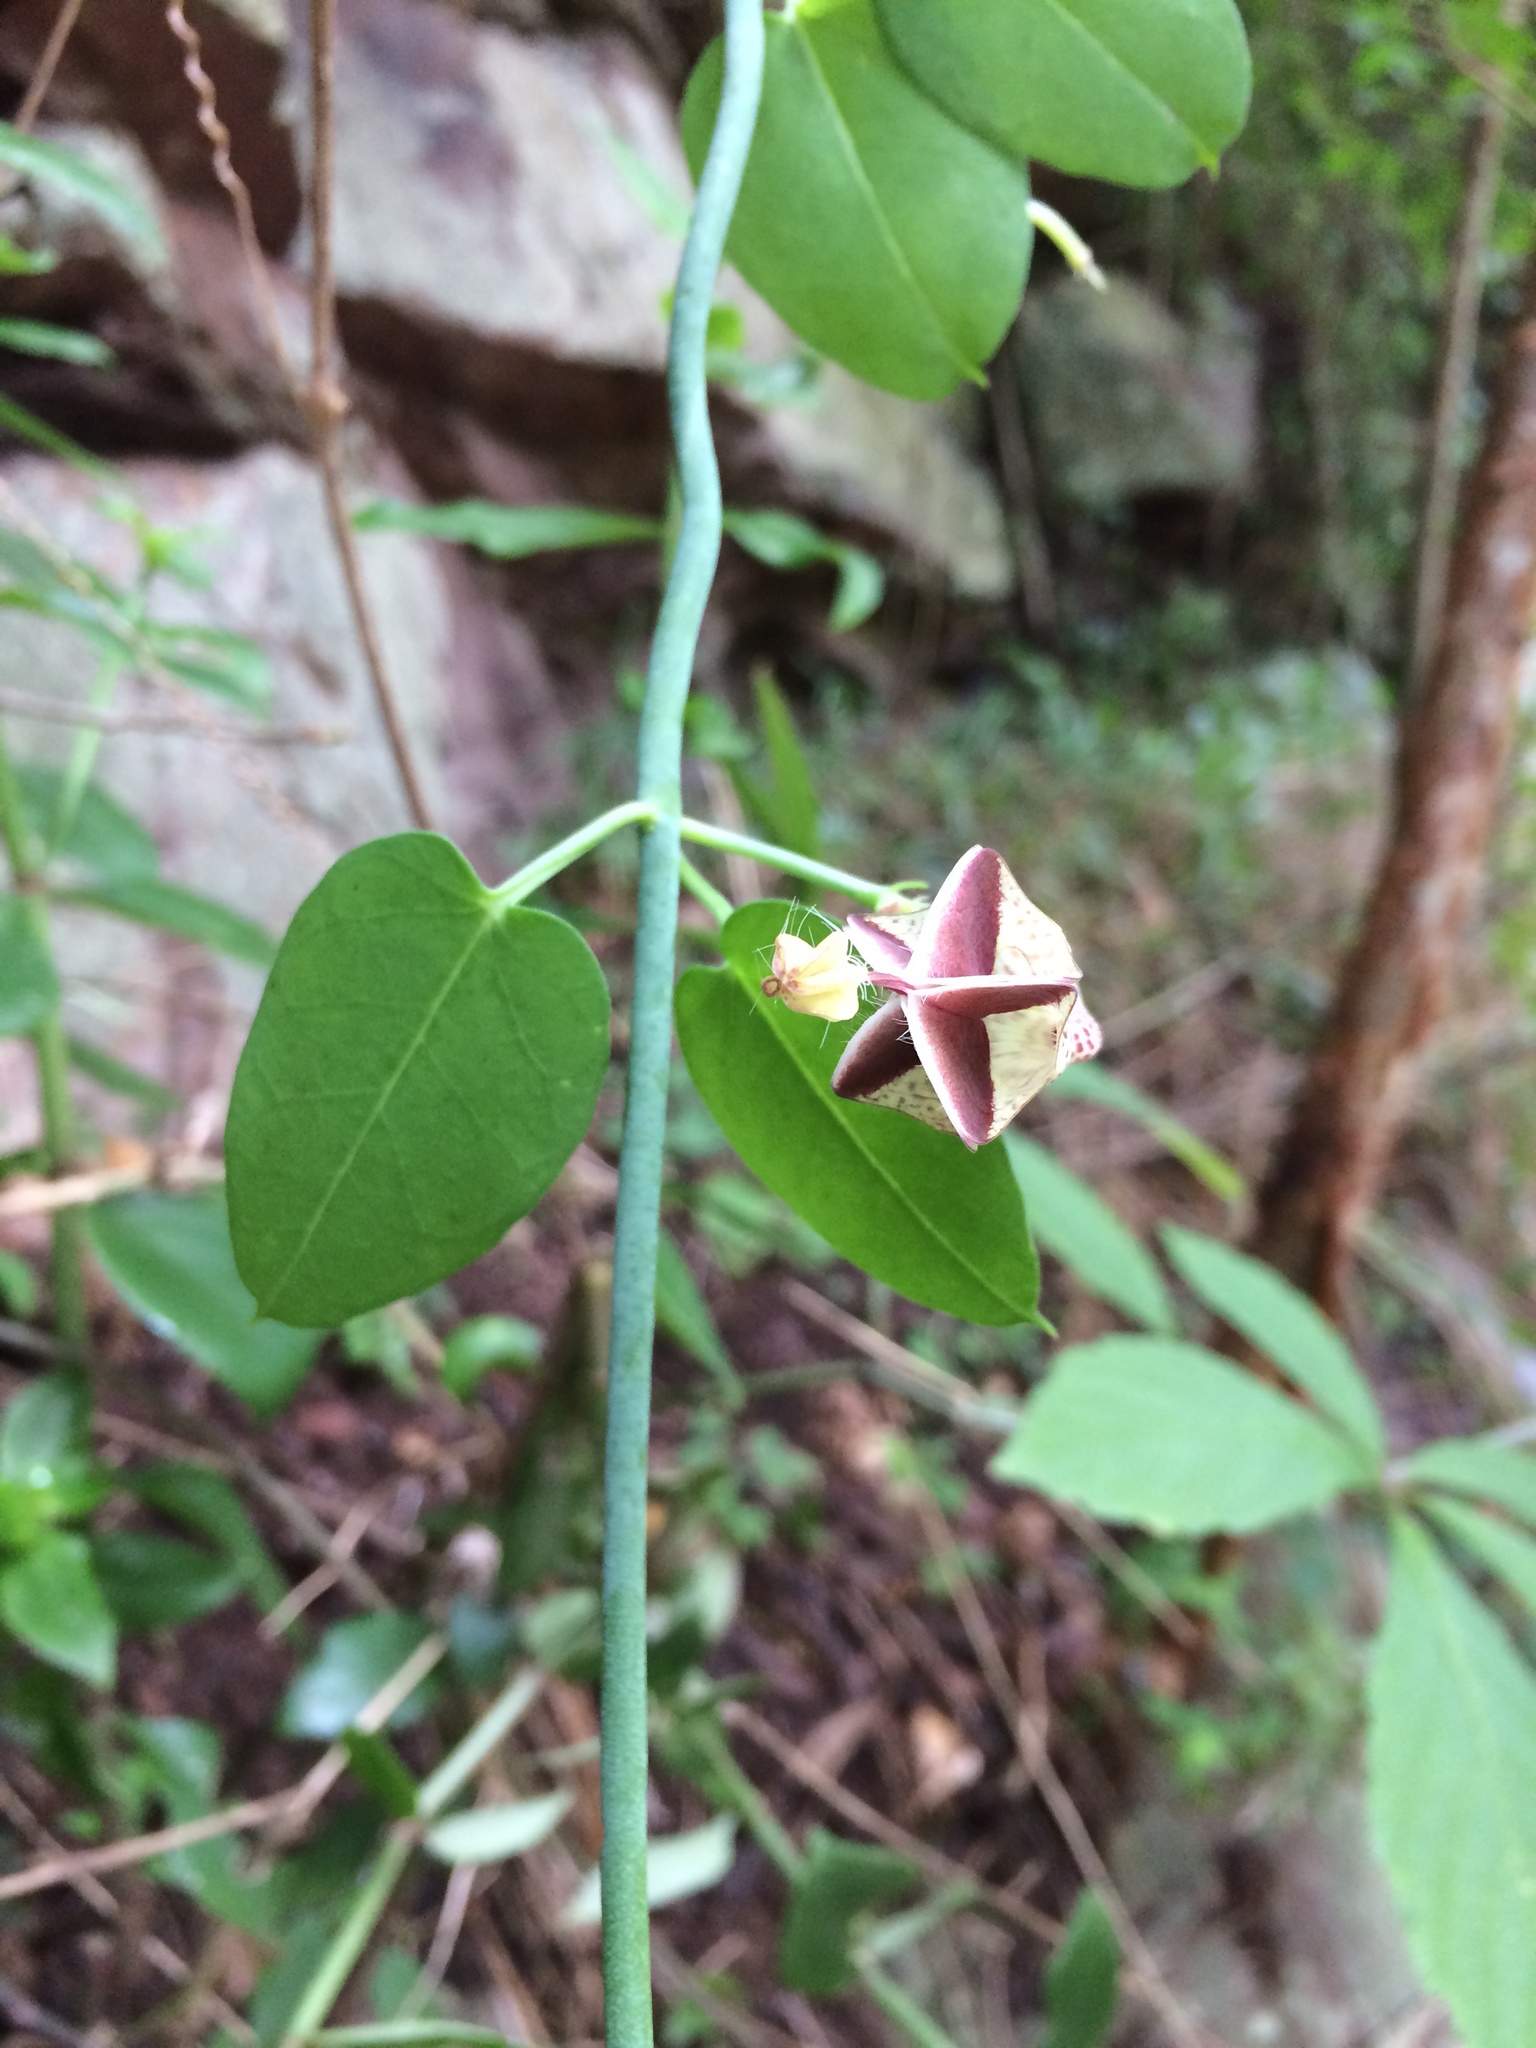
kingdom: Plantae
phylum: Tracheophyta
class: Magnoliopsida
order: Gentianales
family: Apocynaceae
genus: Ceropegia
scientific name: Ceropegia distincta
